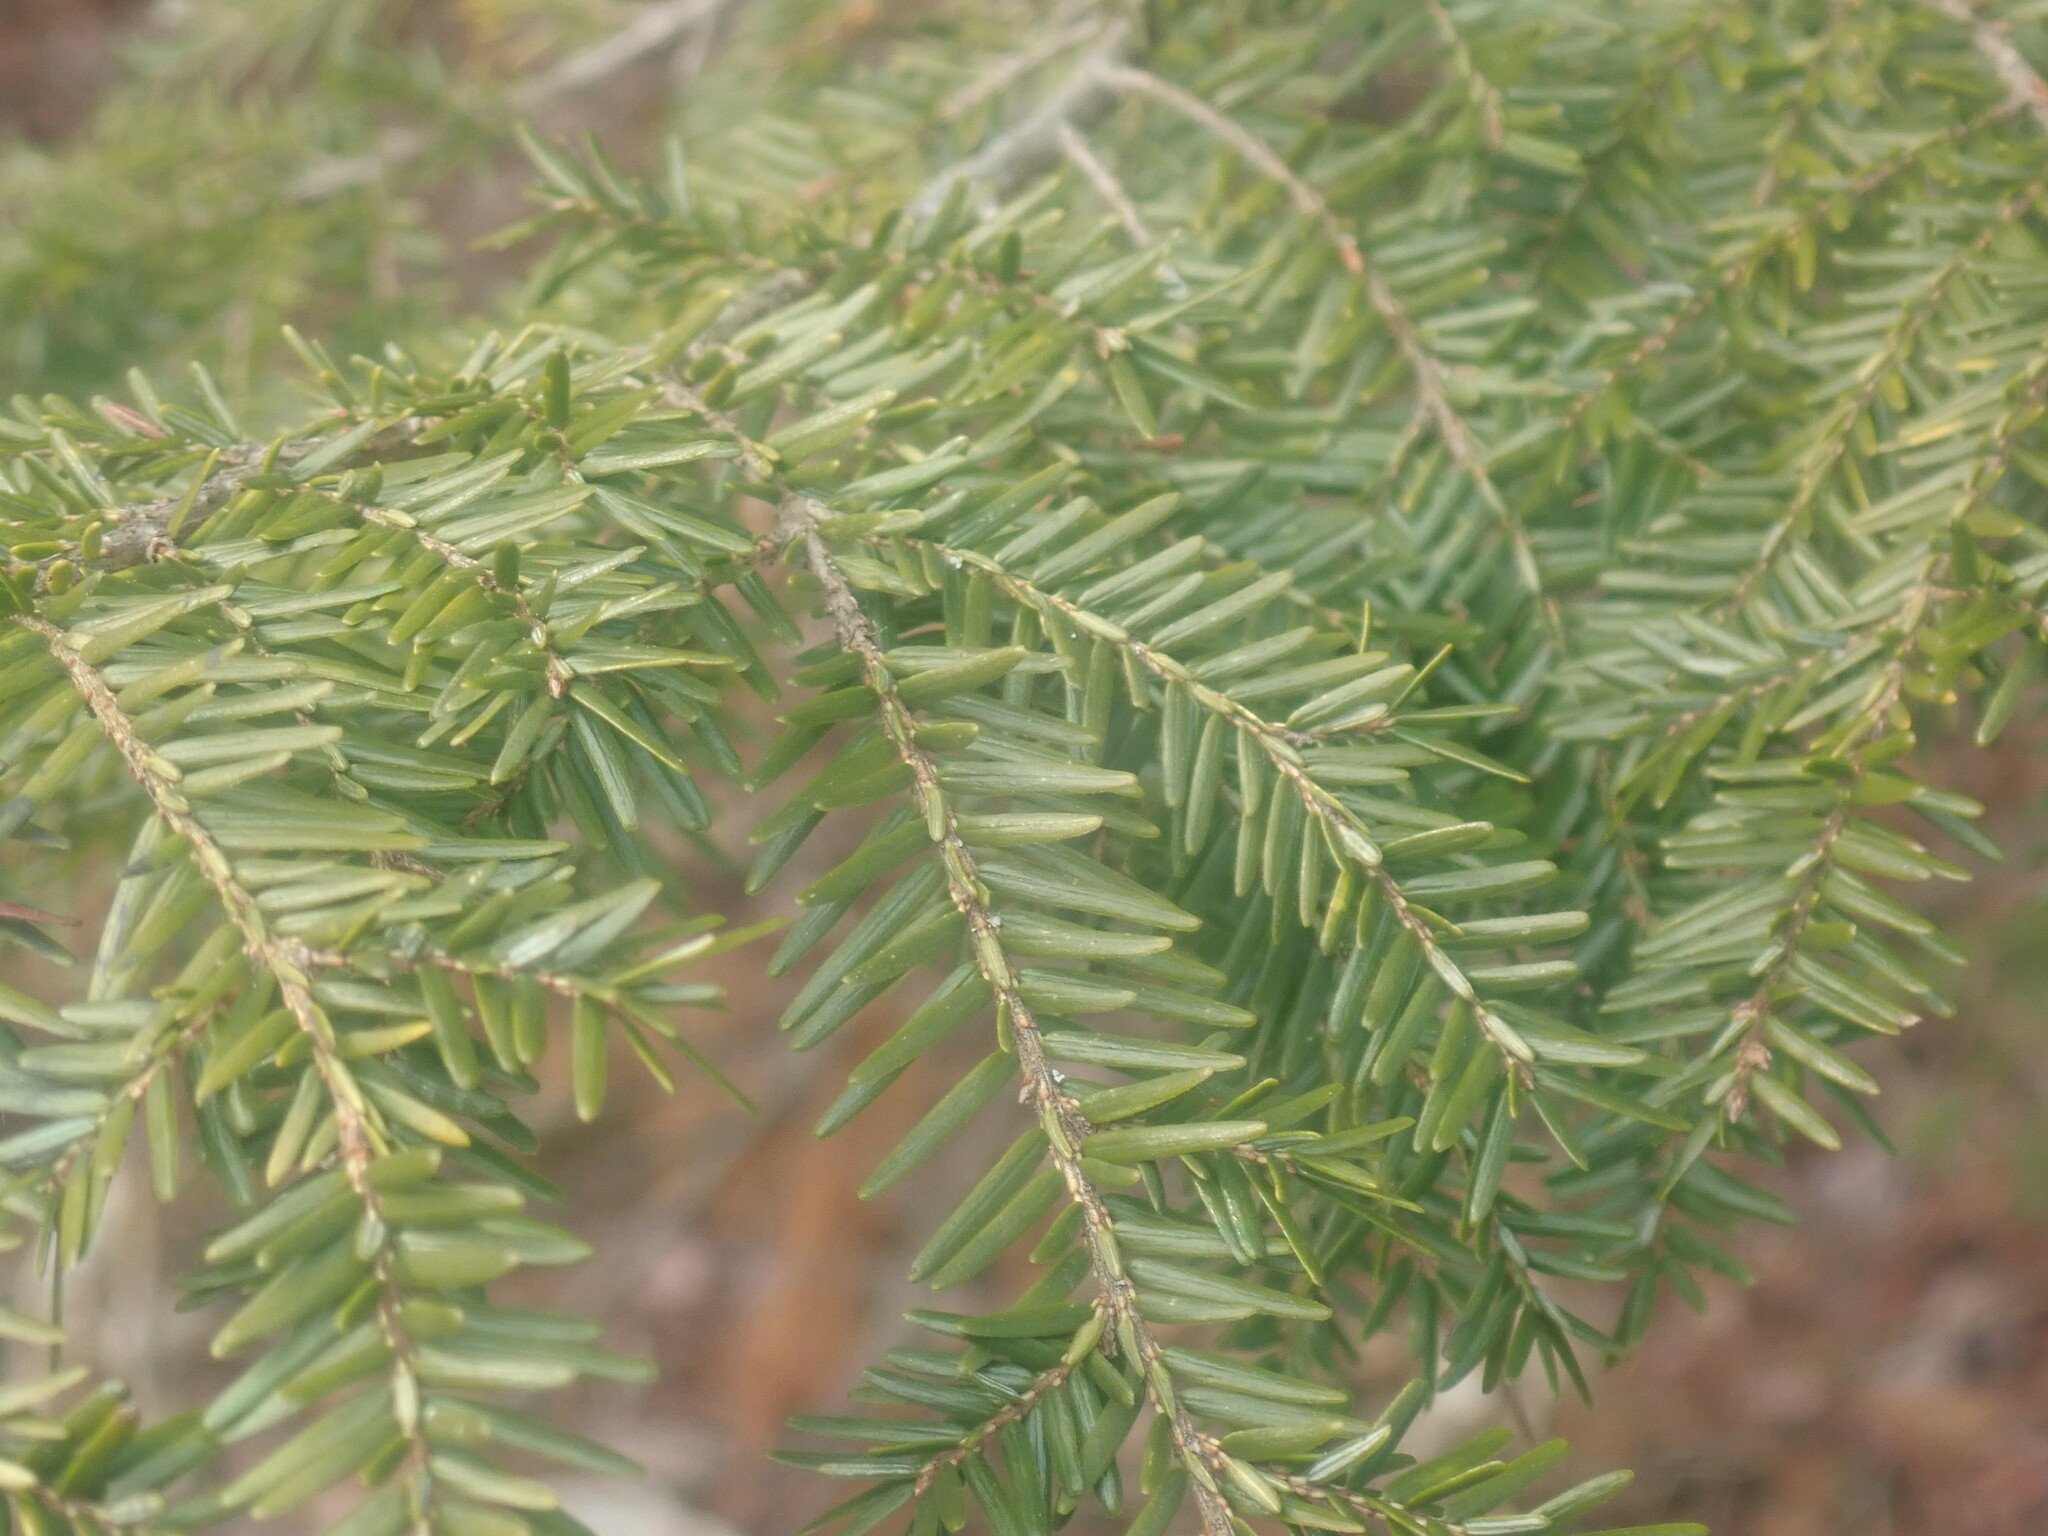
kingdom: Plantae
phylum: Tracheophyta
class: Pinopsida
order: Pinales
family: Pinaceae
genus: Tsuga
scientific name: Tsuga canadensis
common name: Eastern hemlock
